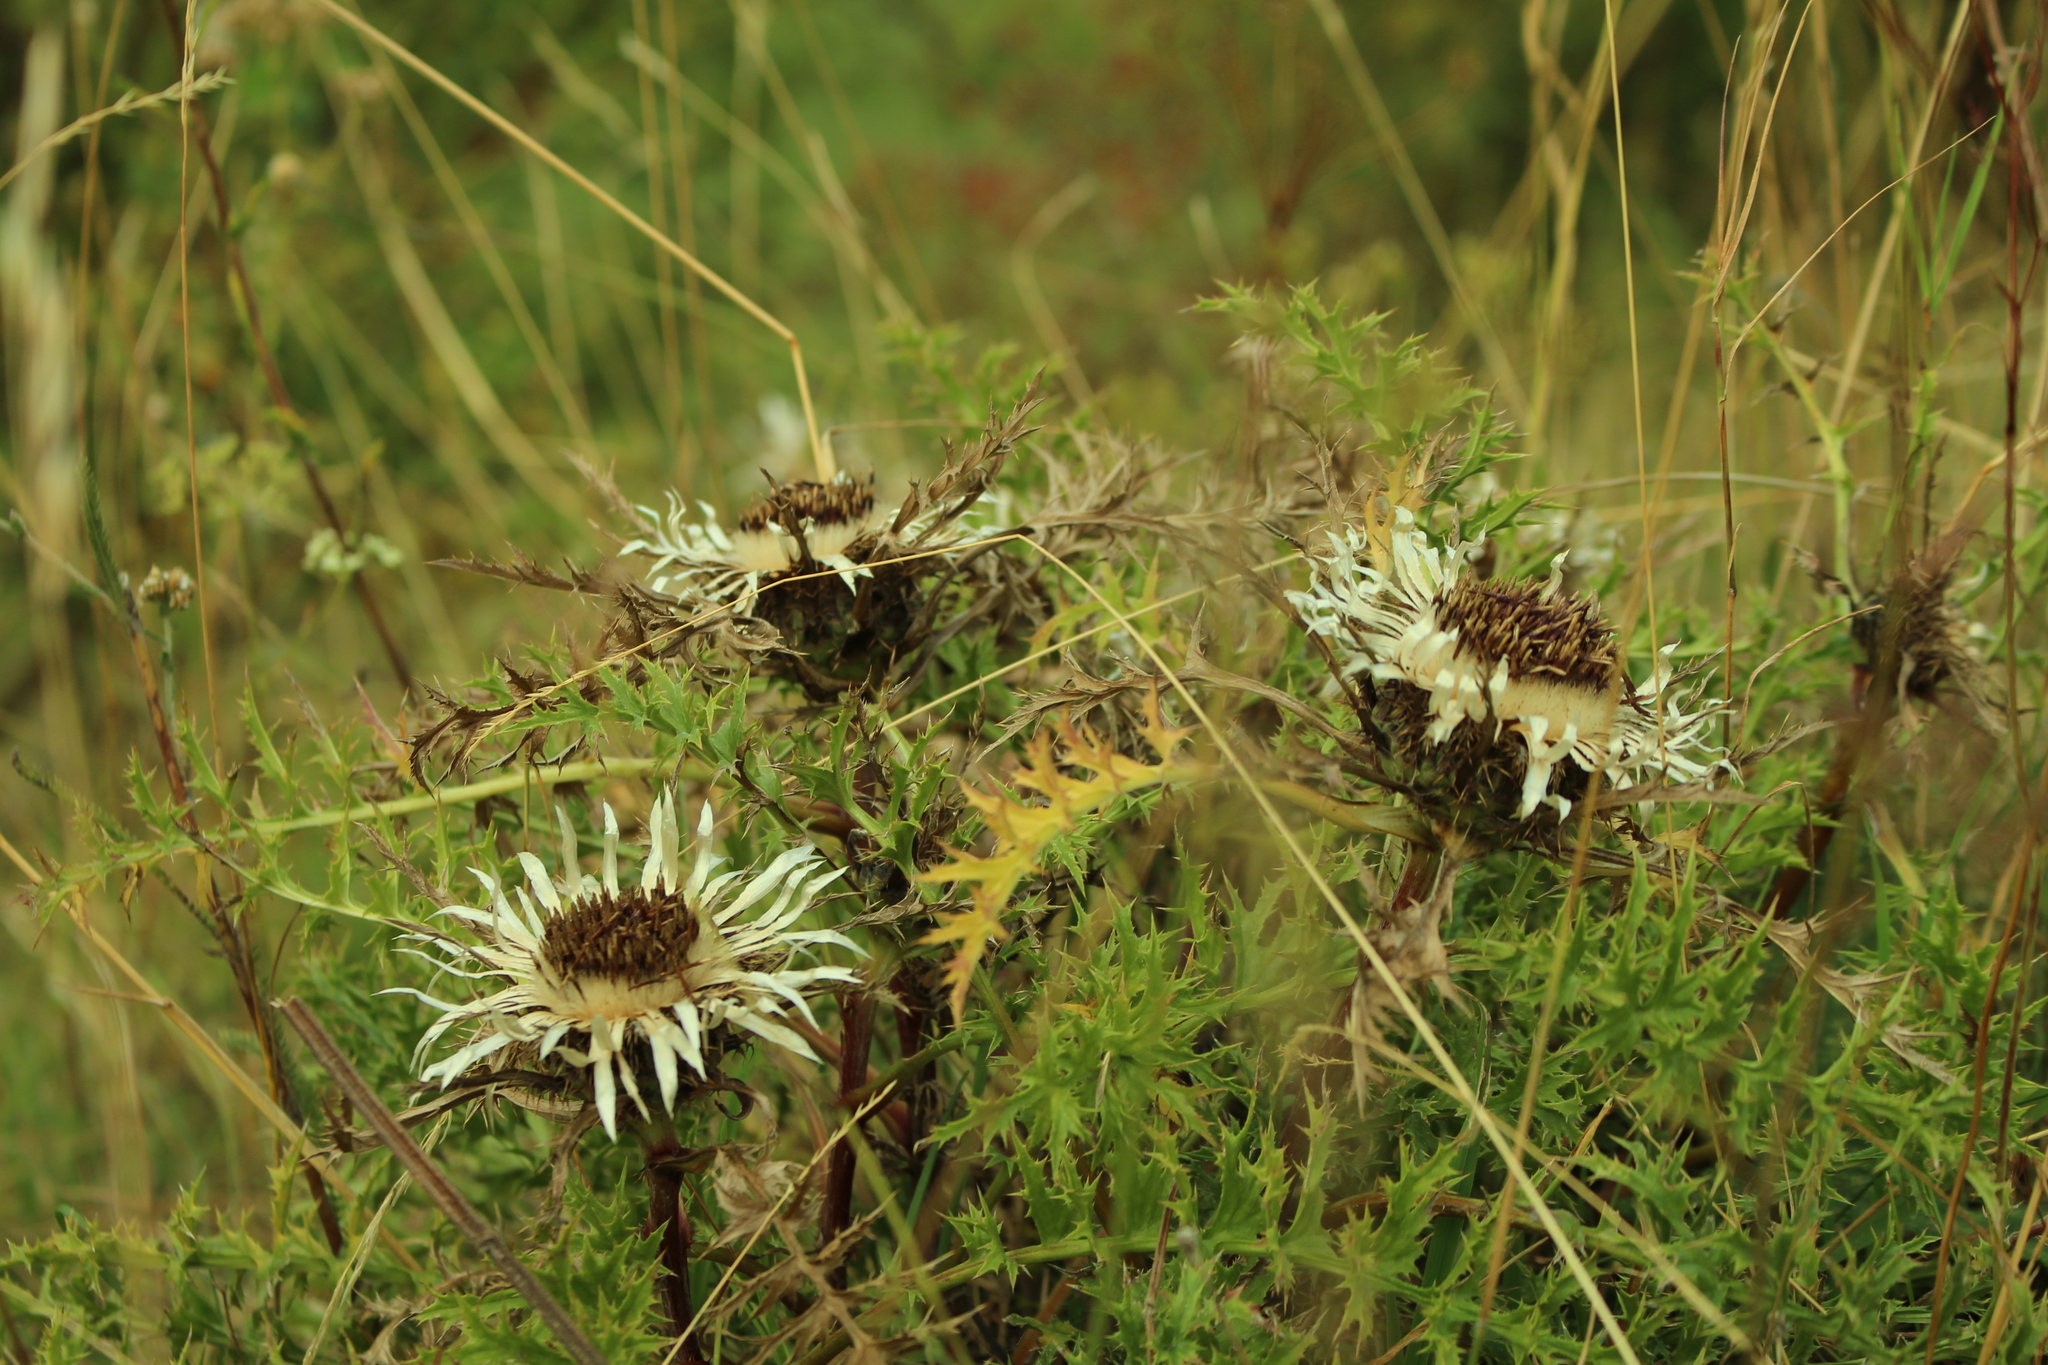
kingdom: Plantae
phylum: Tracheophyta
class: Magnoliopsida
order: Asterales
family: Asteraceae
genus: Carlina
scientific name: Carlina acaulis
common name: Stemless carline thistle
